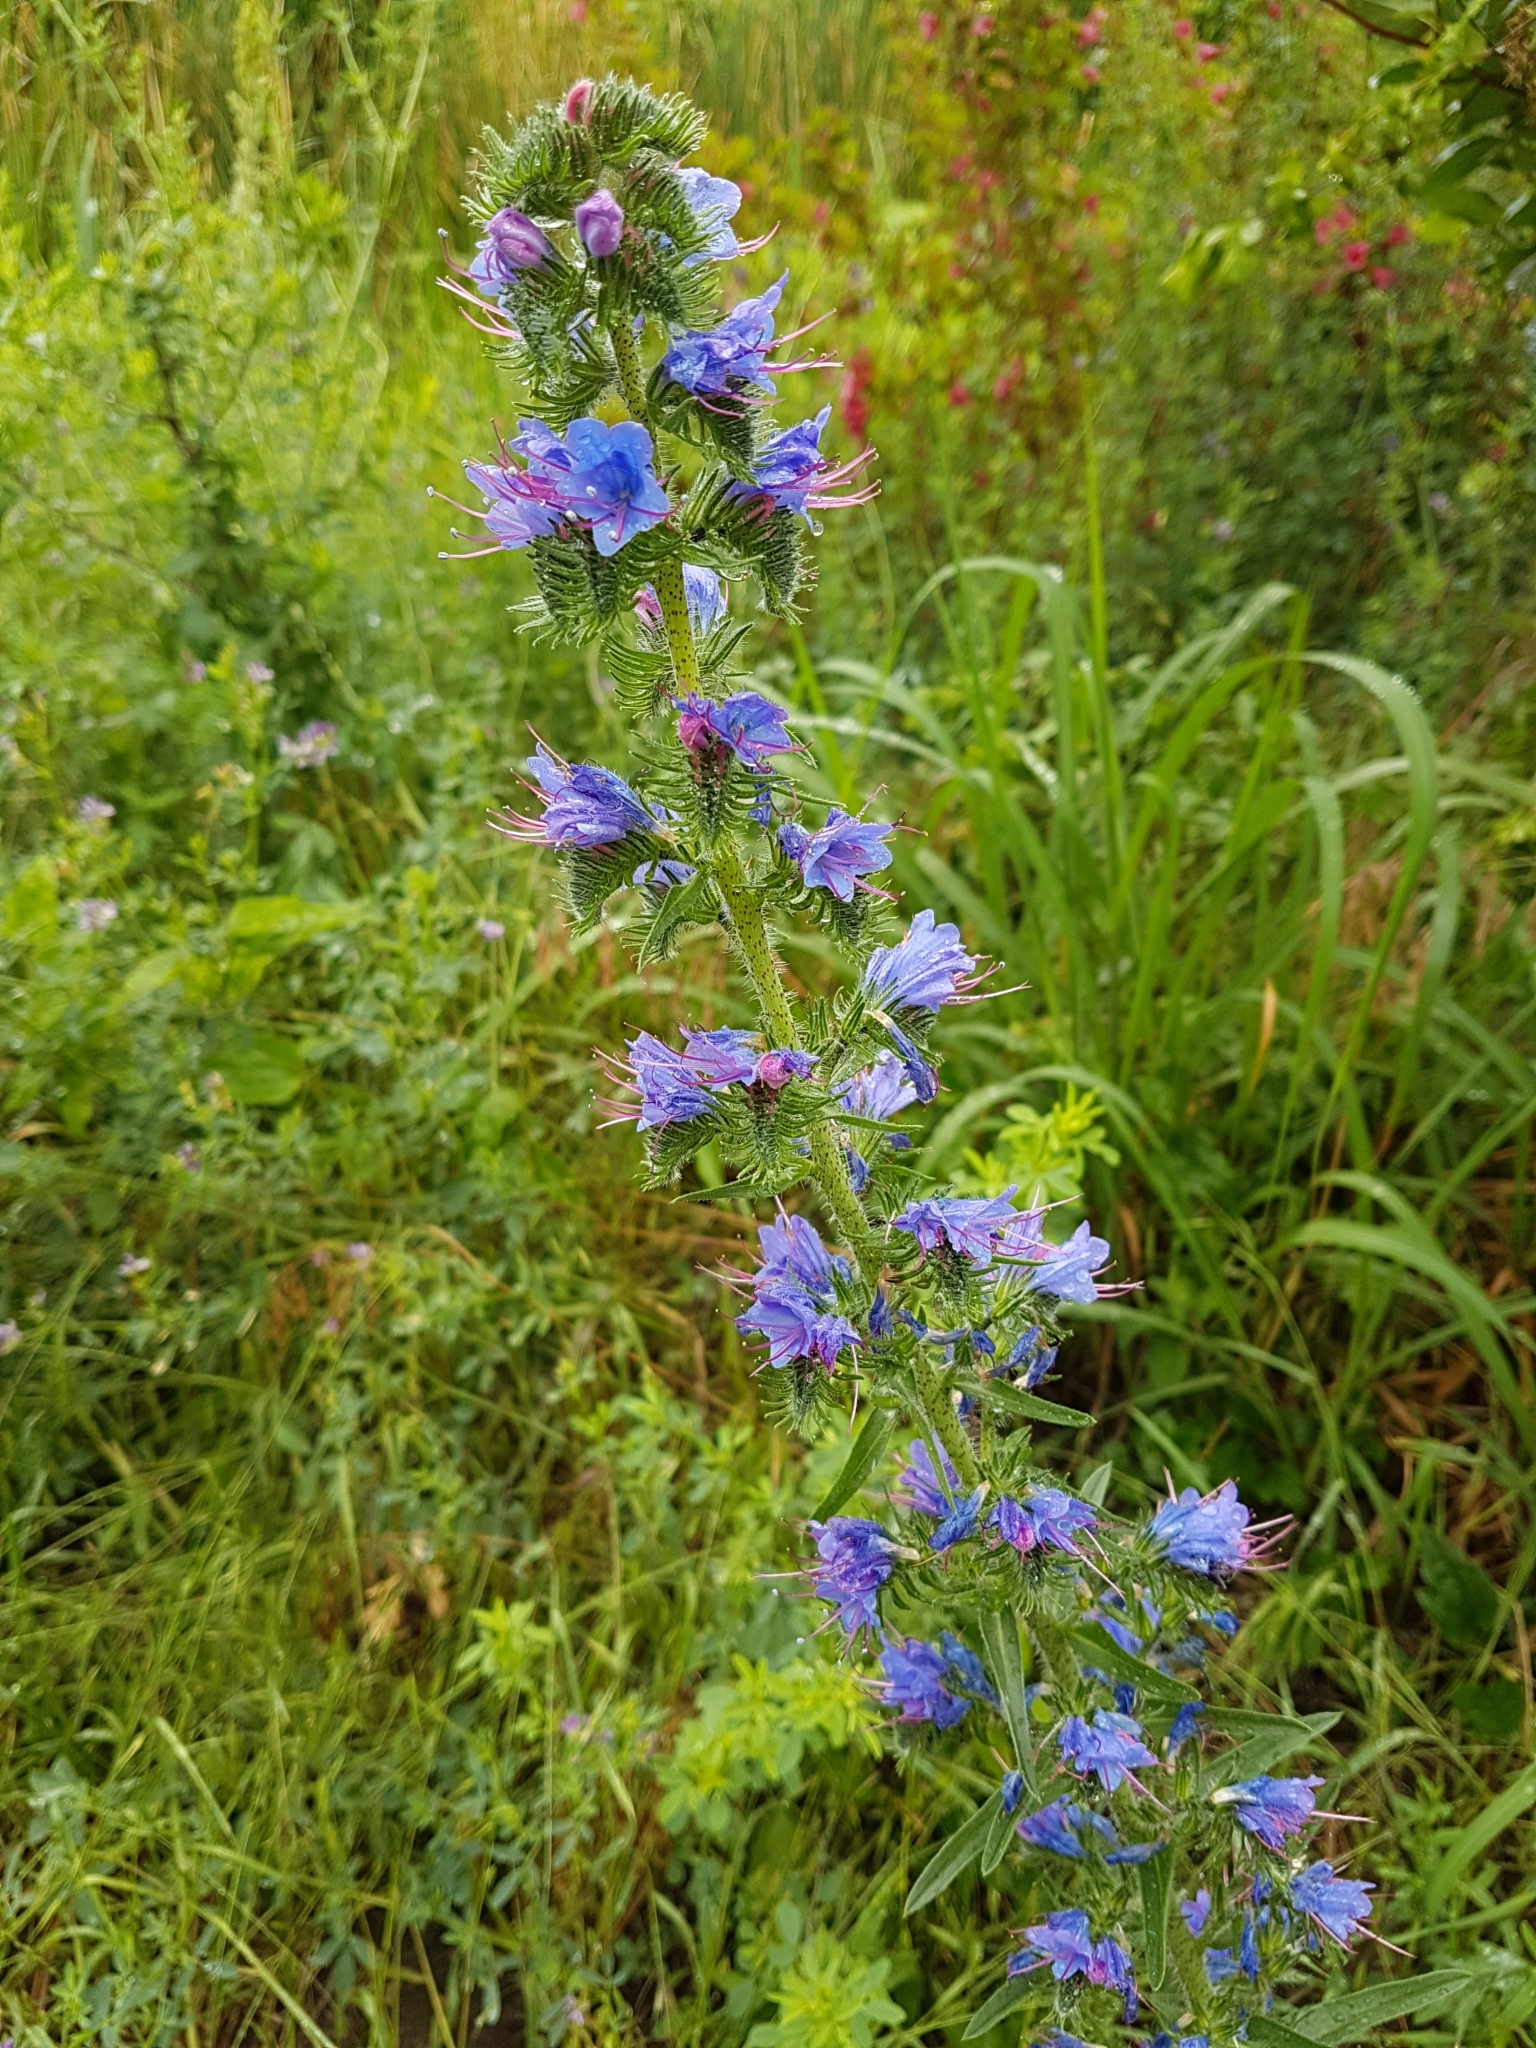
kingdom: Plantae
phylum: Tracheophyta
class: Magnoliopsida
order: Boraginales
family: Boraginaceae
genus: Echium
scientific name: Echium vulgare
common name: Common viper's bugloss
